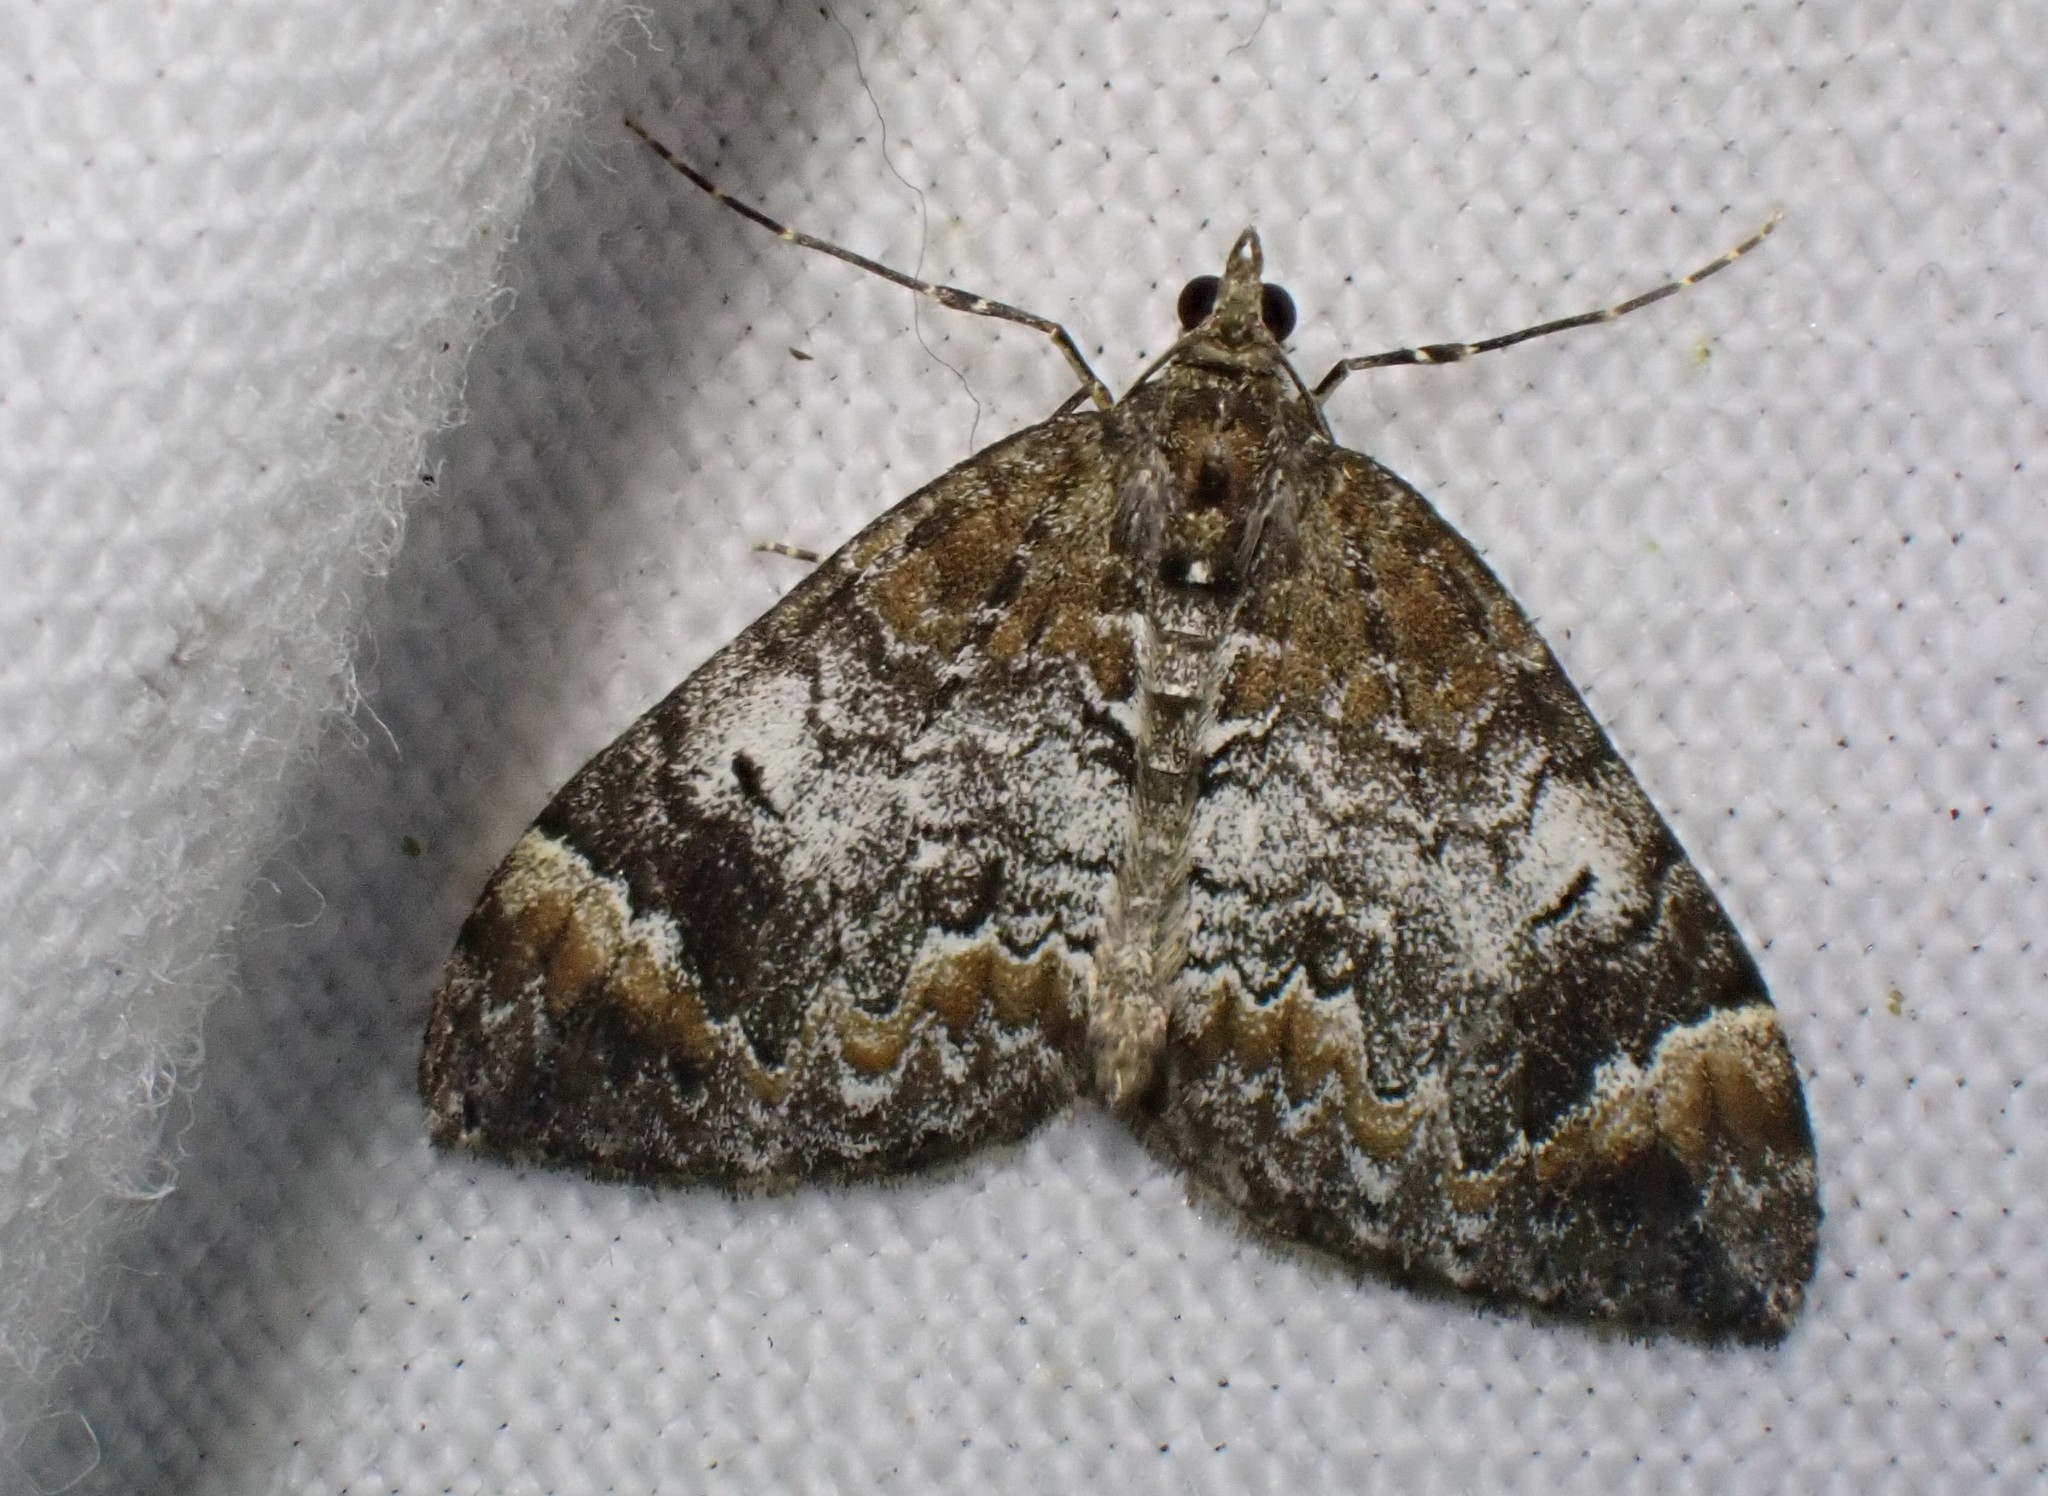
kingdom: Animalia
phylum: Arthropoda
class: Insecta
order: Lepidoptera
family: Geometridae
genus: Dysstroma
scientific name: Dysstroma truncata
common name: Common marbled carpet
